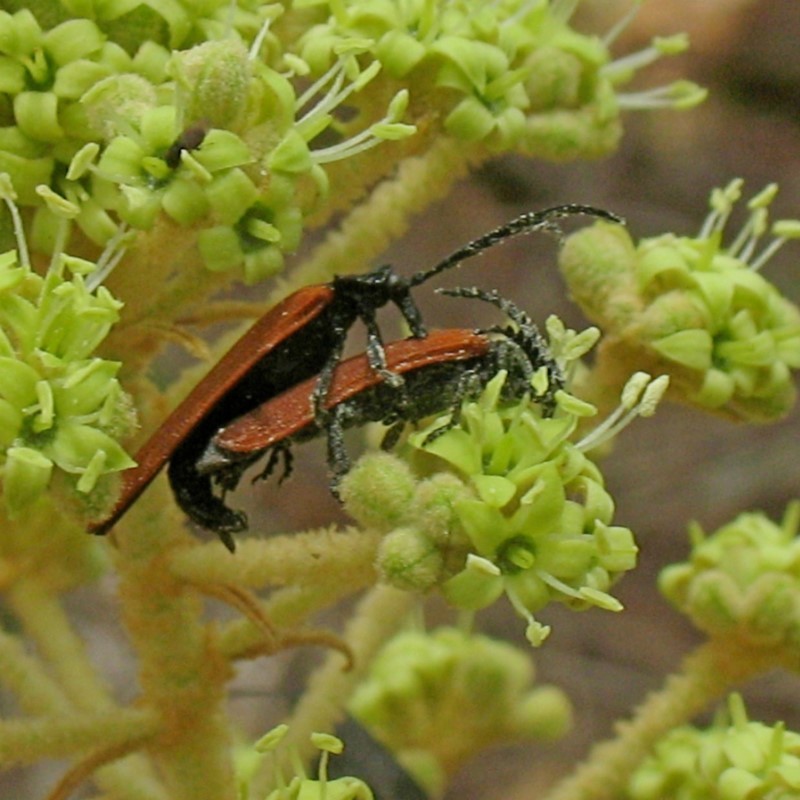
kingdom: Animalia
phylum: Arthropoda
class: Insecta
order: Coleoptera
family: Lycidae
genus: Porrostoma
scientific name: Porrostoma rhipidium
